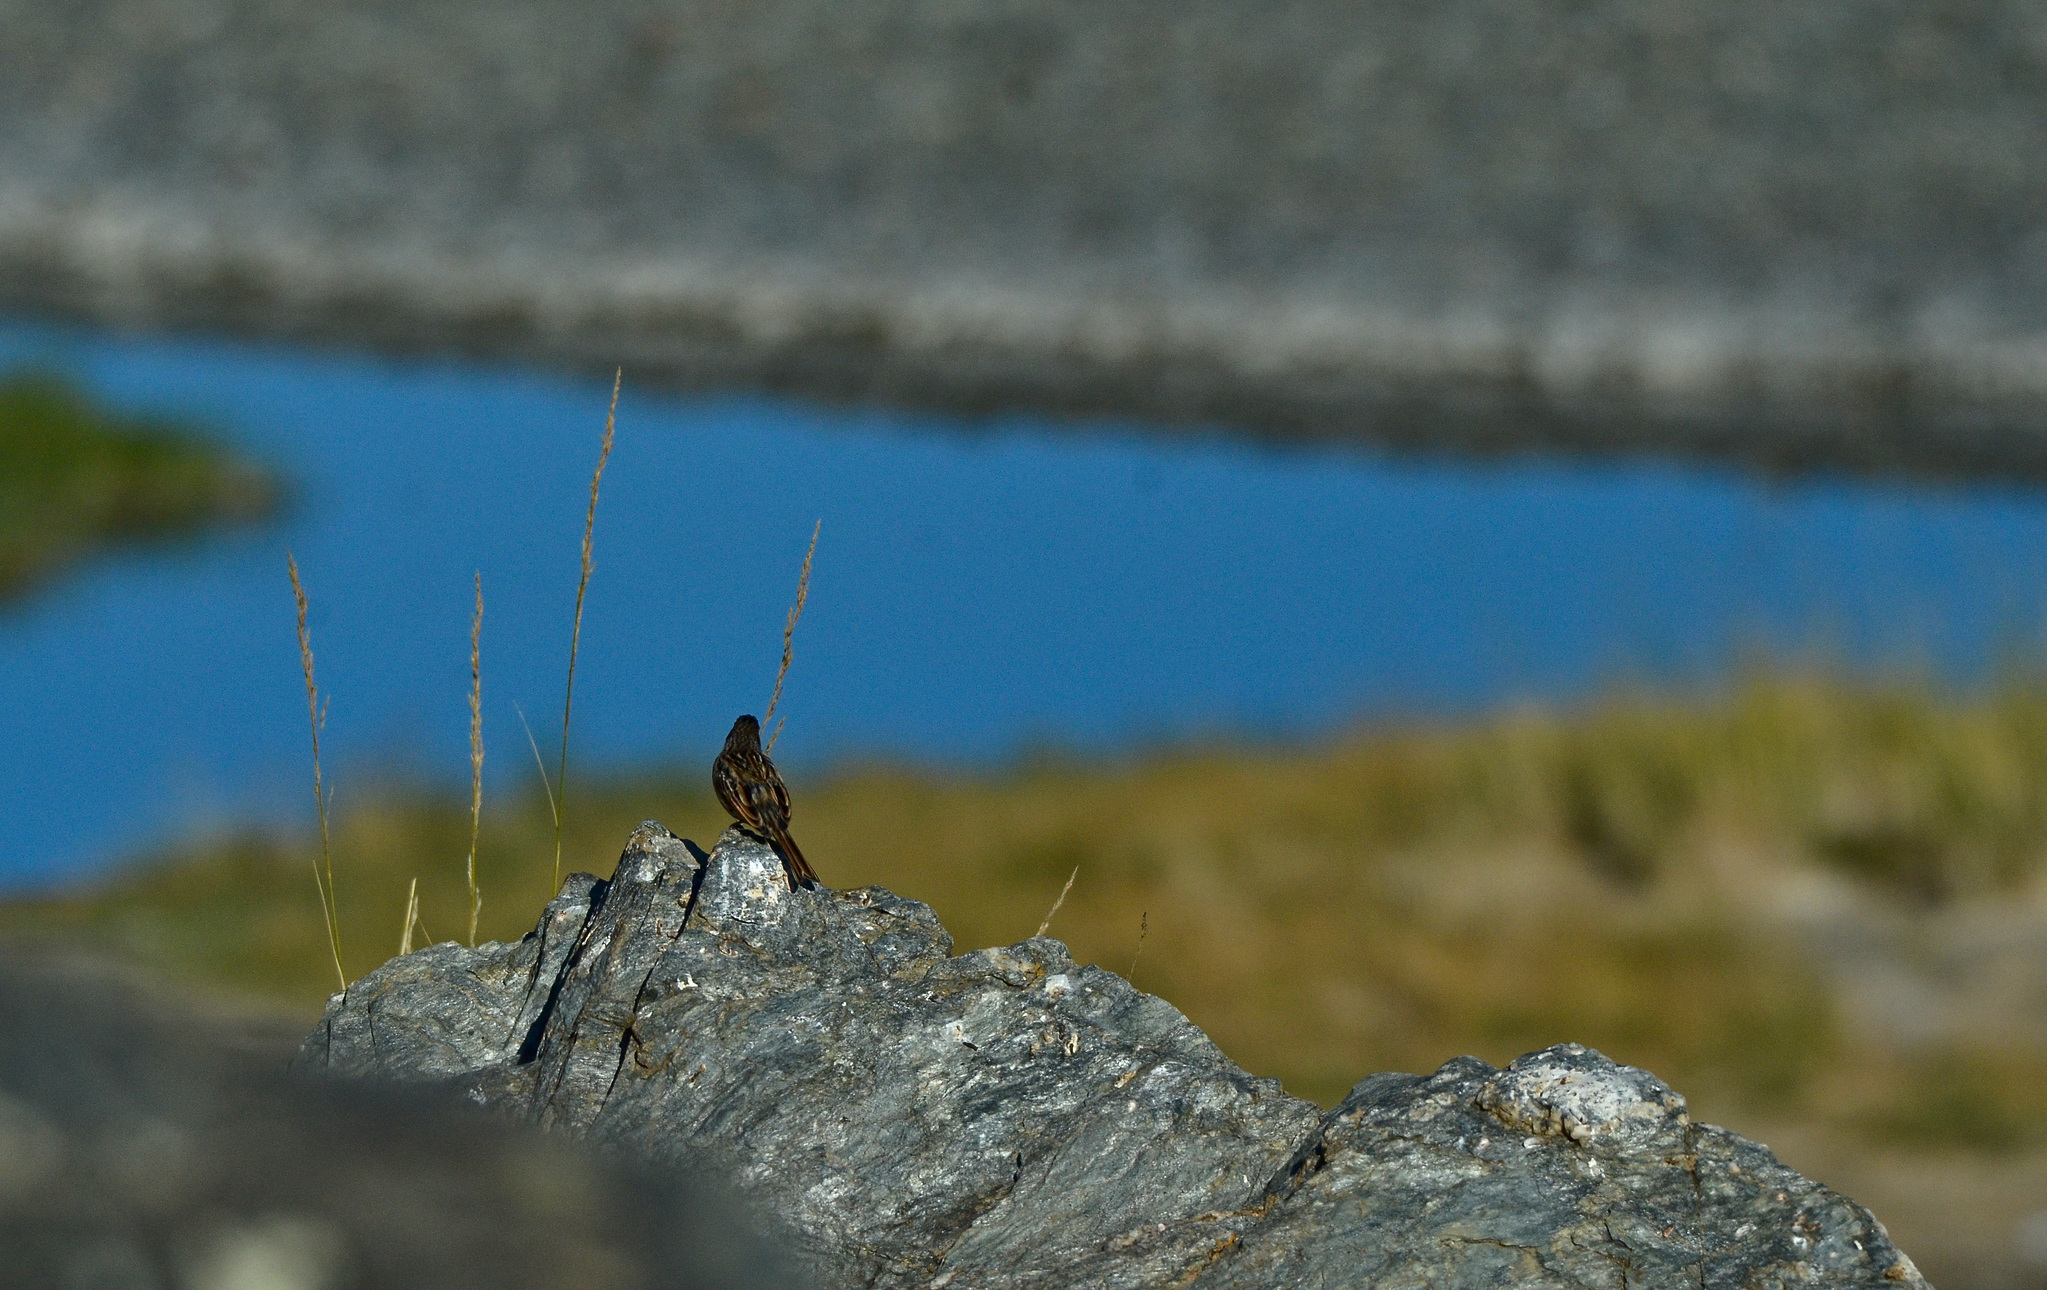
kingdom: Animalia
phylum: Chordata
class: Aves
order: Passeriformes
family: Emberizidae
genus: Emberiza
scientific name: Emberiza schoeniclus
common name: Reed bunting
